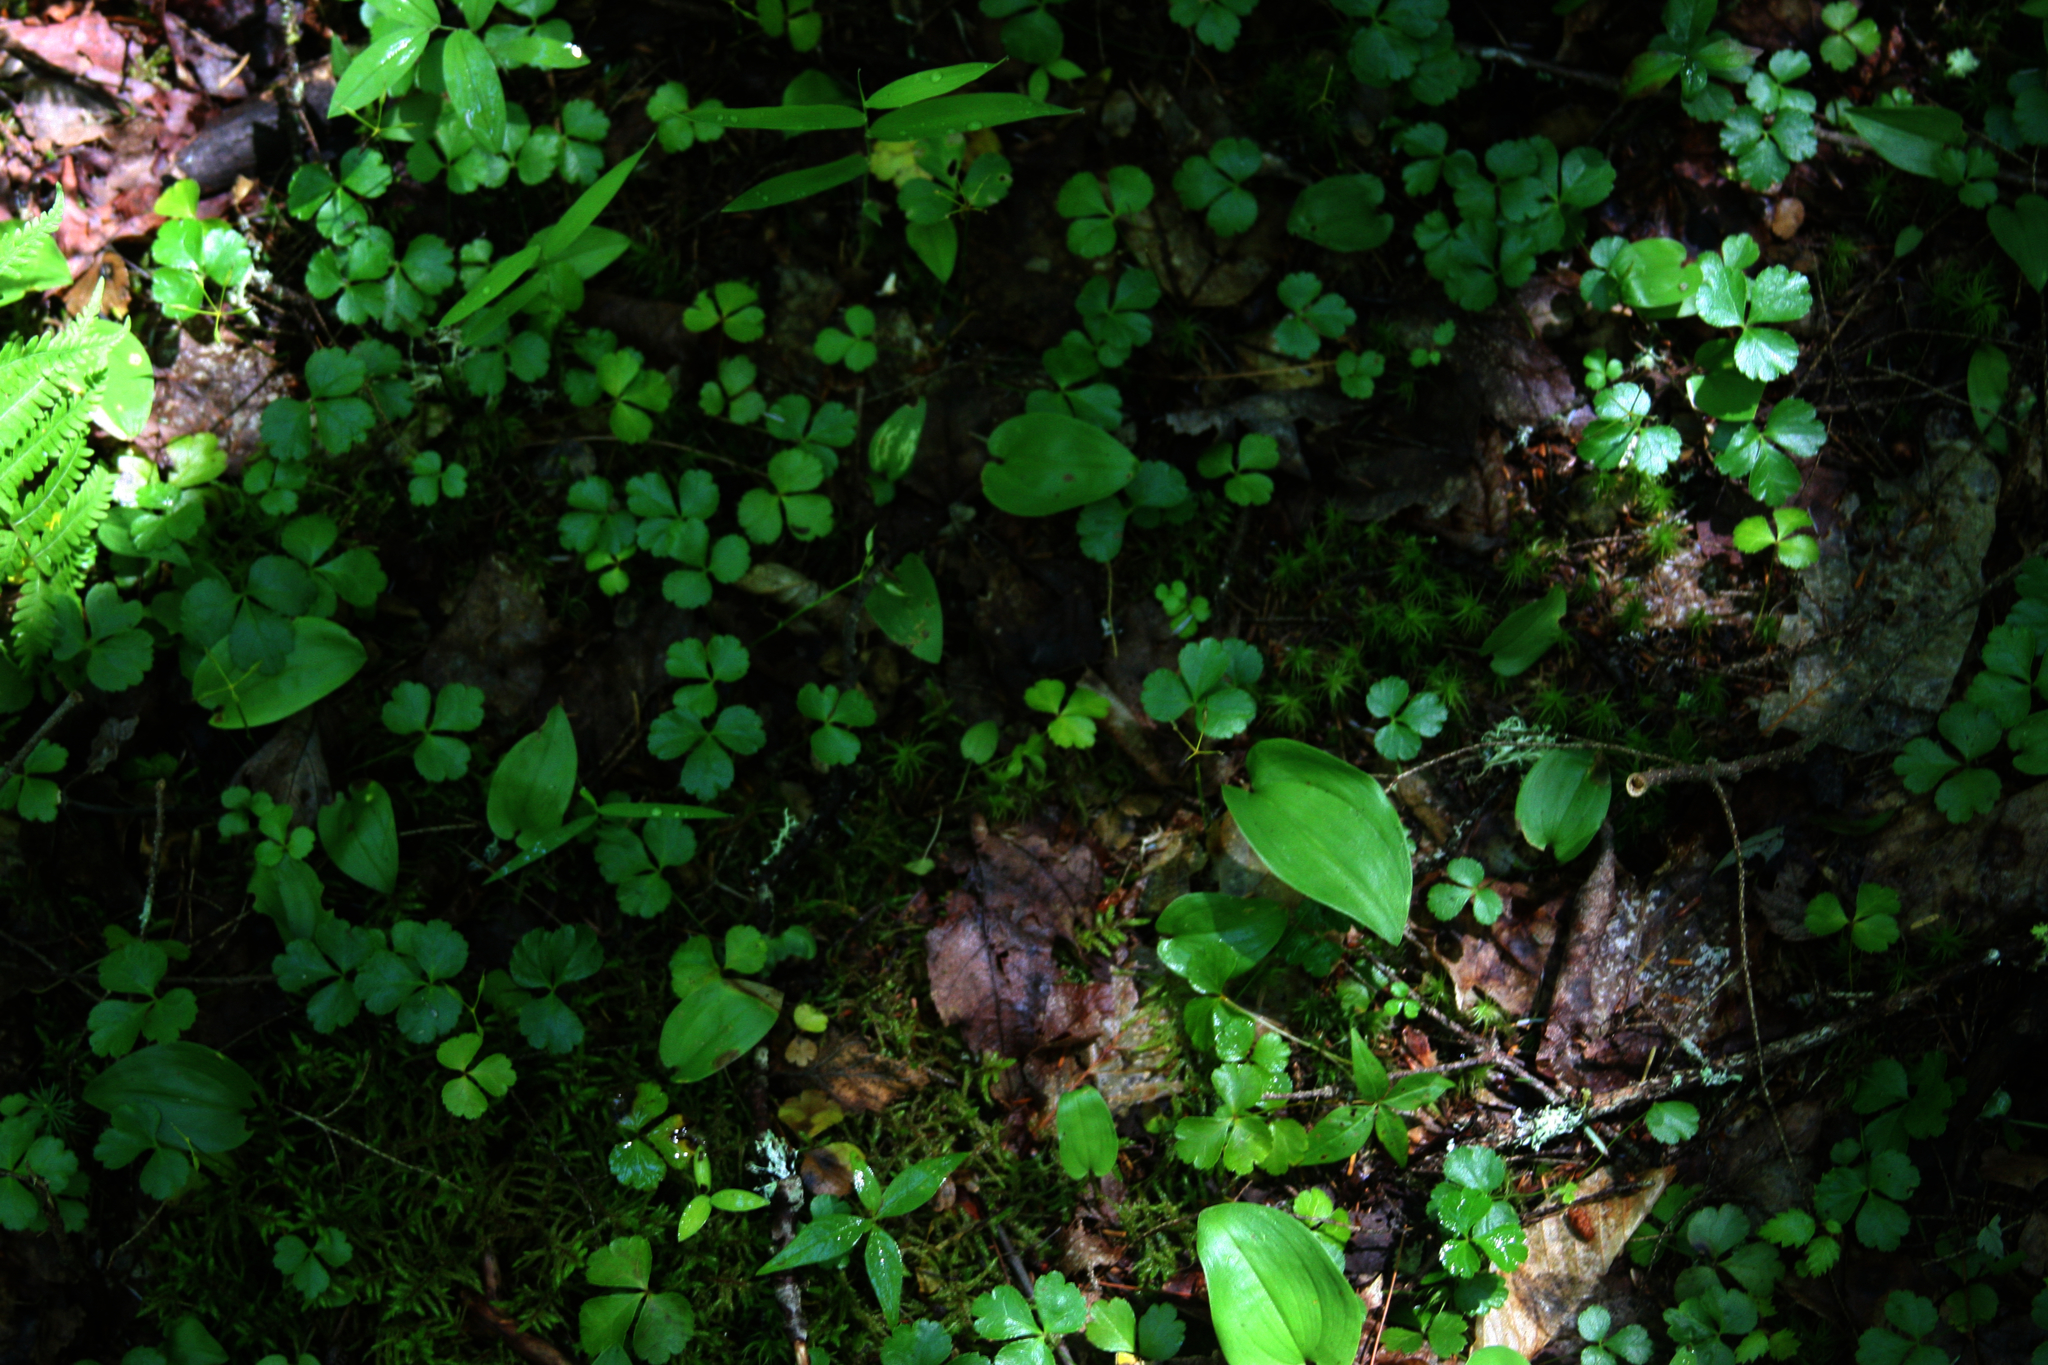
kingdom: Plantae
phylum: Tracheophyta
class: Magnoliopsida
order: Ranunculales
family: Ranunculaceae
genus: Coptis
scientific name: Coptis trifolia
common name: Canker-root
